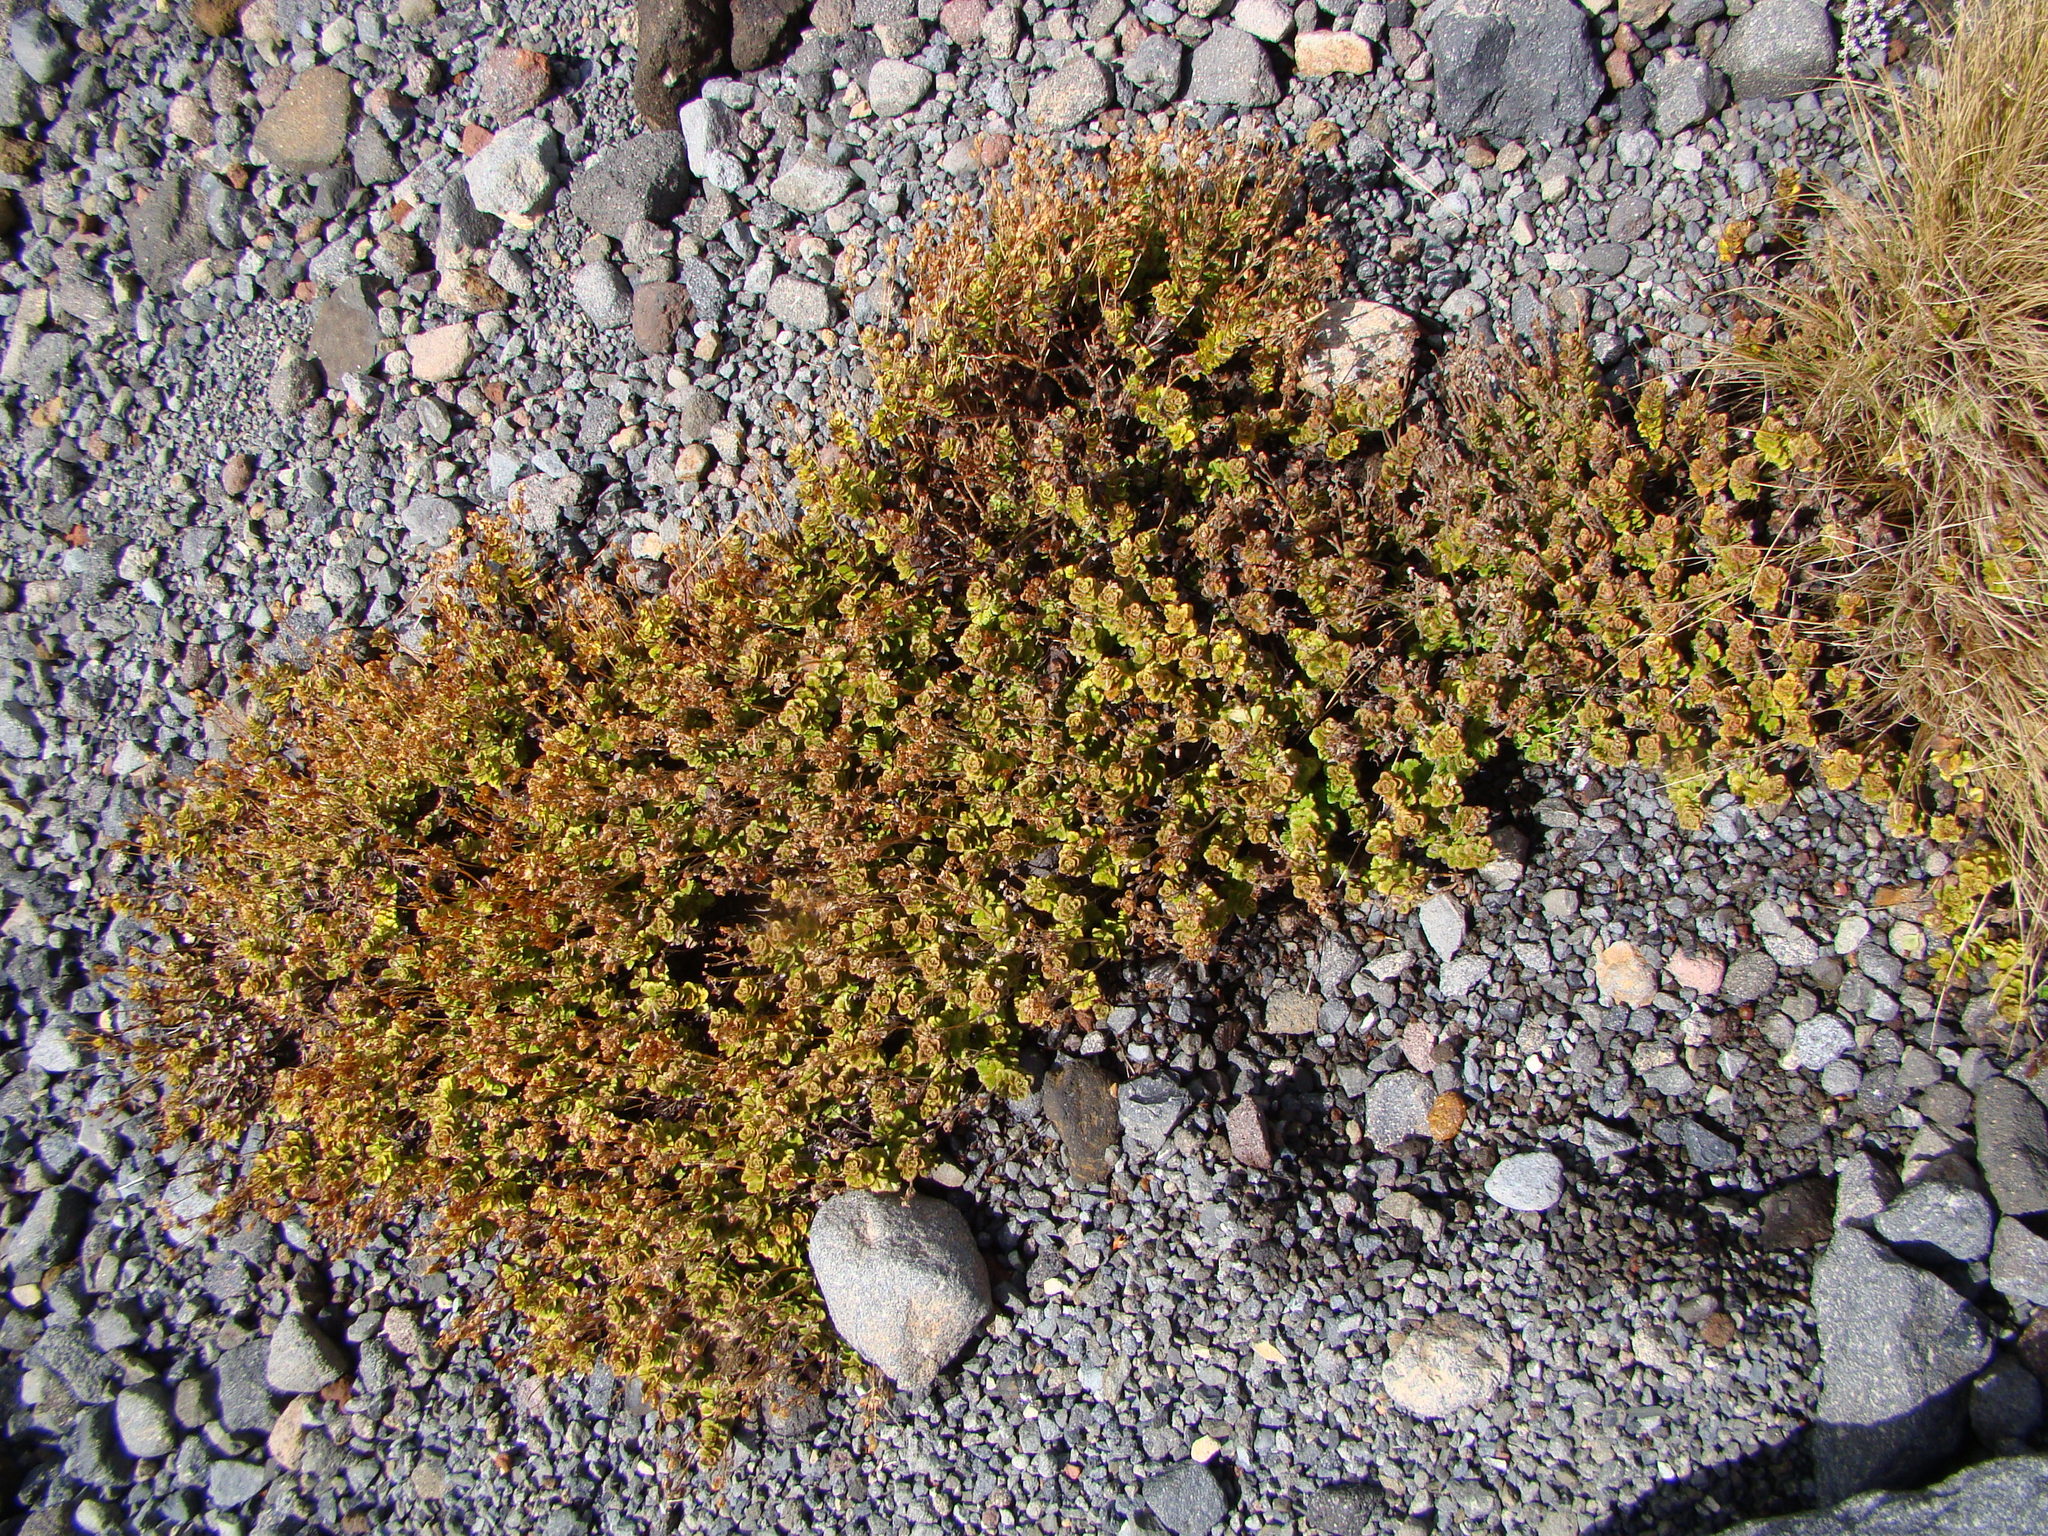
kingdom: Plantae
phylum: Tracheophyta
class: Magnoliopsida
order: Lamiales
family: Plantaginaceae
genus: Veronica
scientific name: Veronica hookeriana
